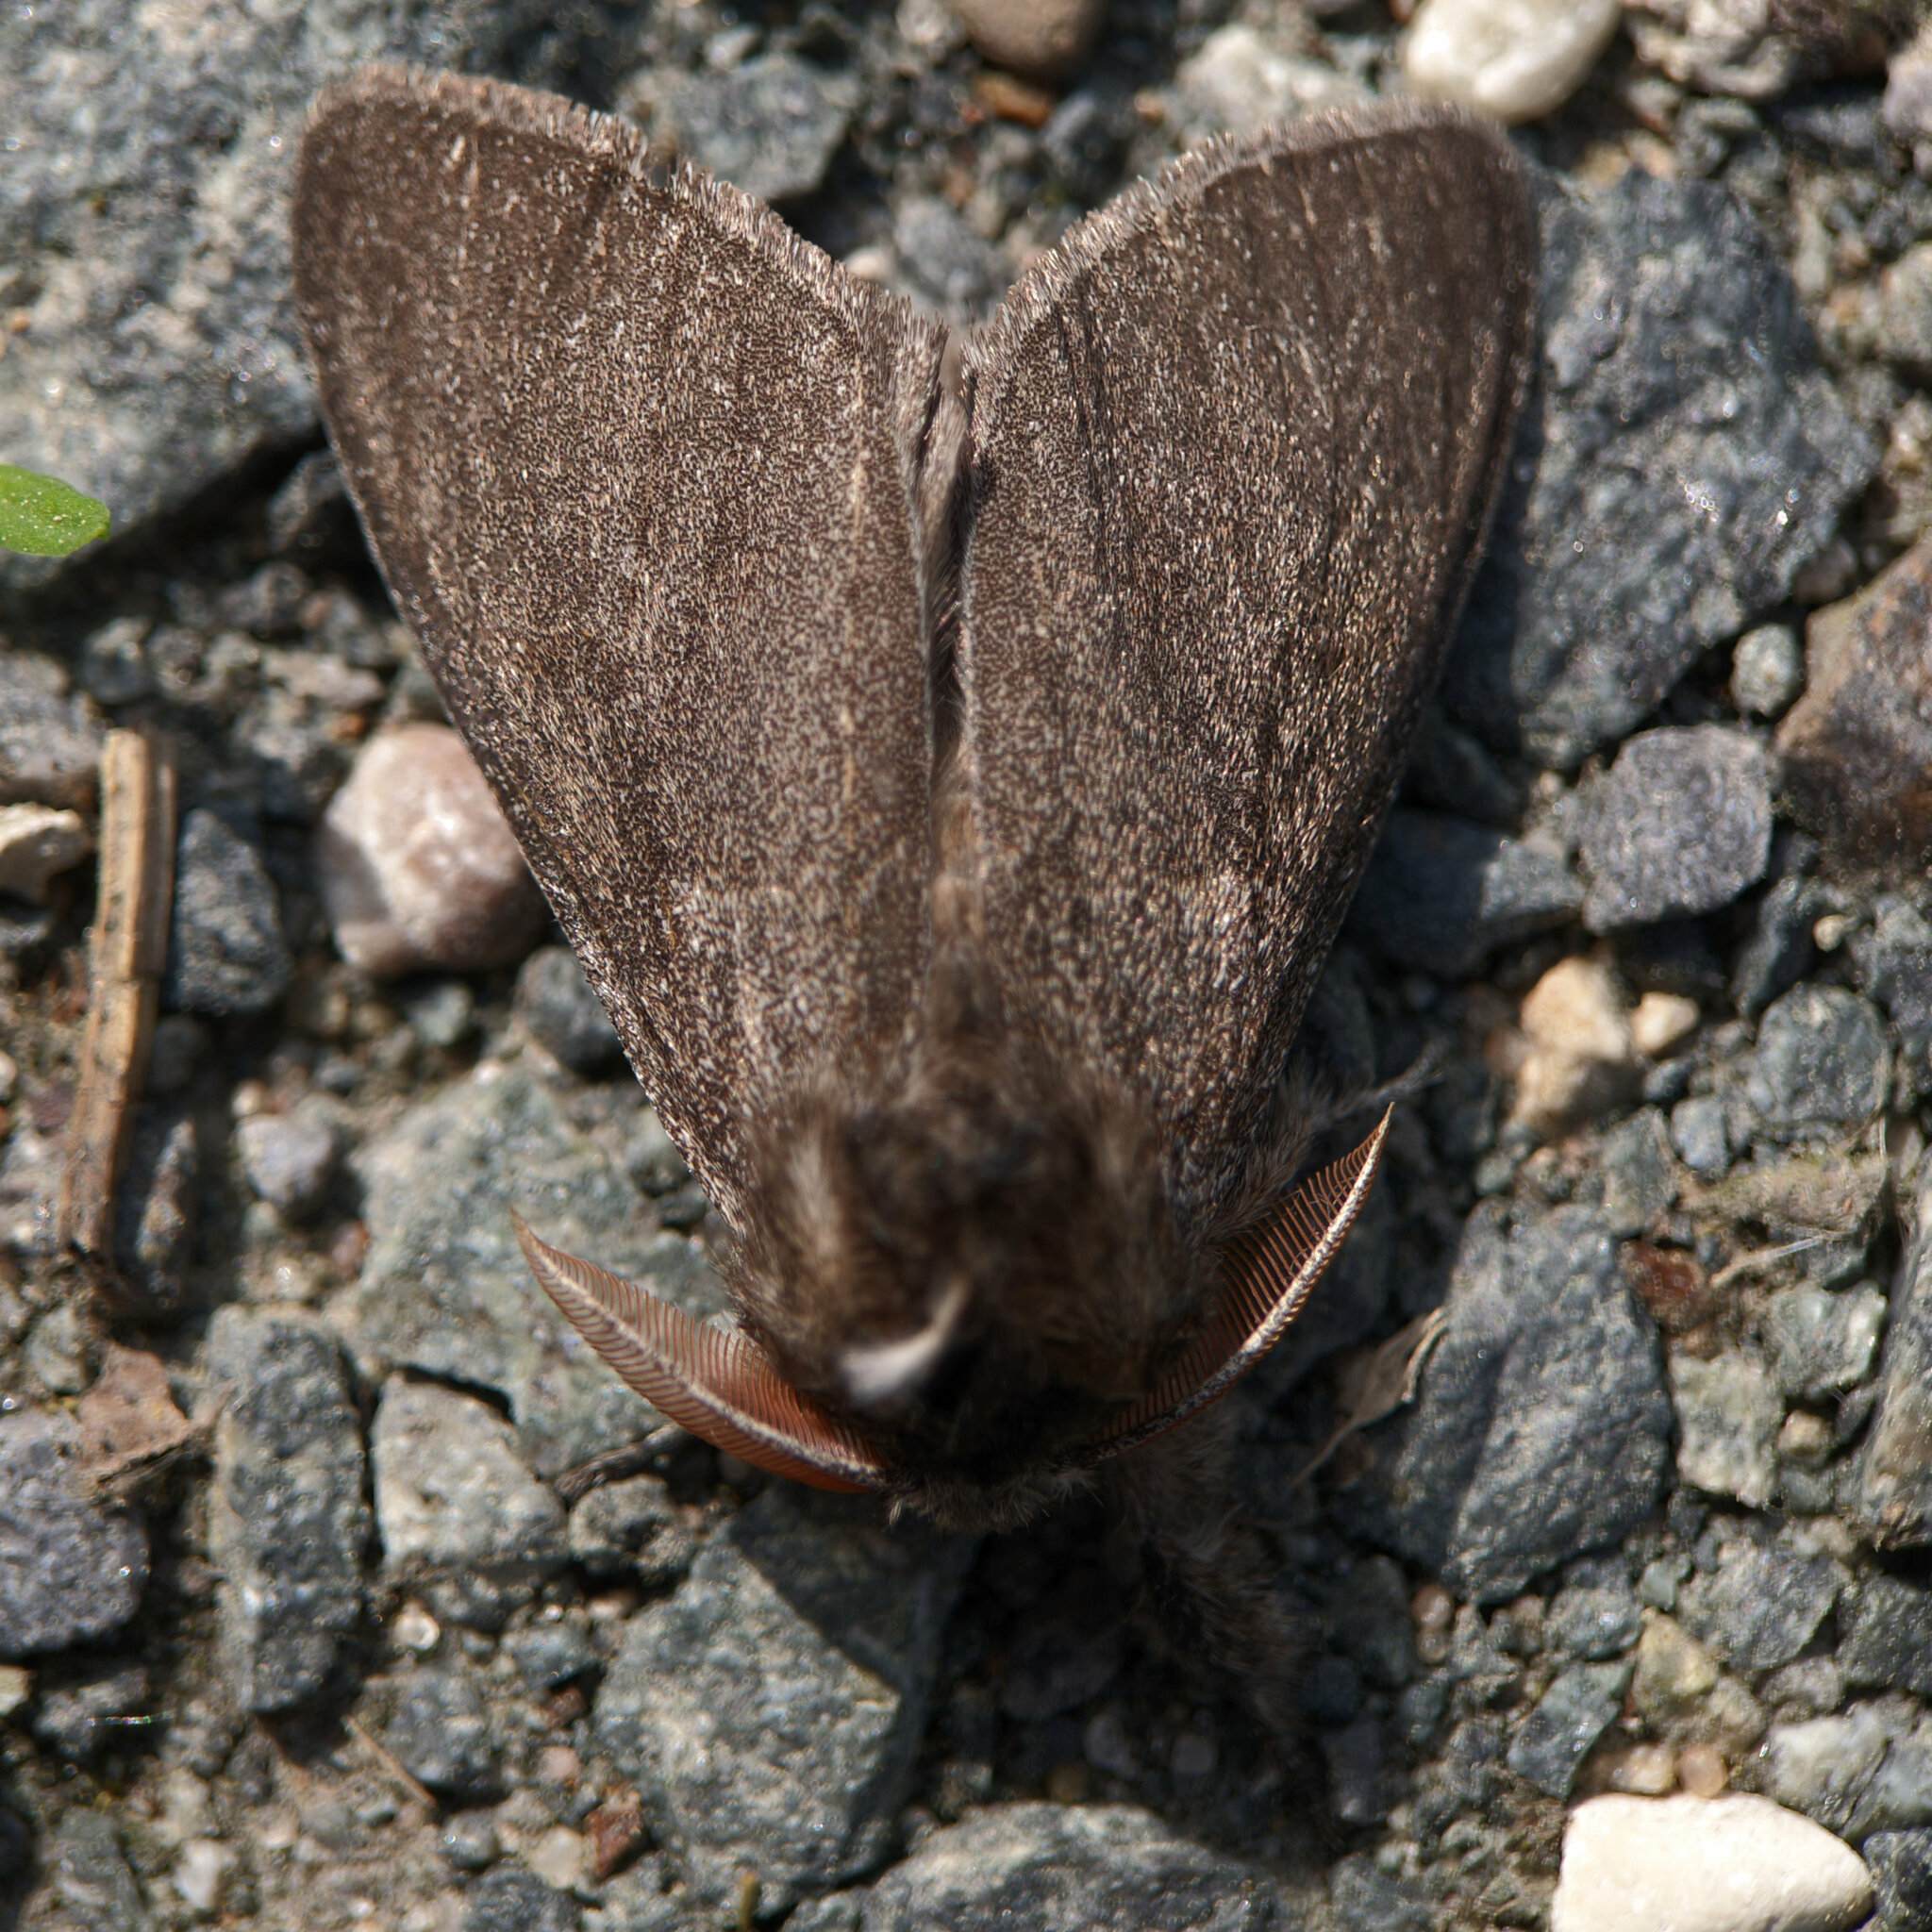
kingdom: Animalia
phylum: Arthropoda
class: Insecta
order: Lepidoptera
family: Erebidae
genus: Calliteara
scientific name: Calliteara pudibunda
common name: Pale tussock
